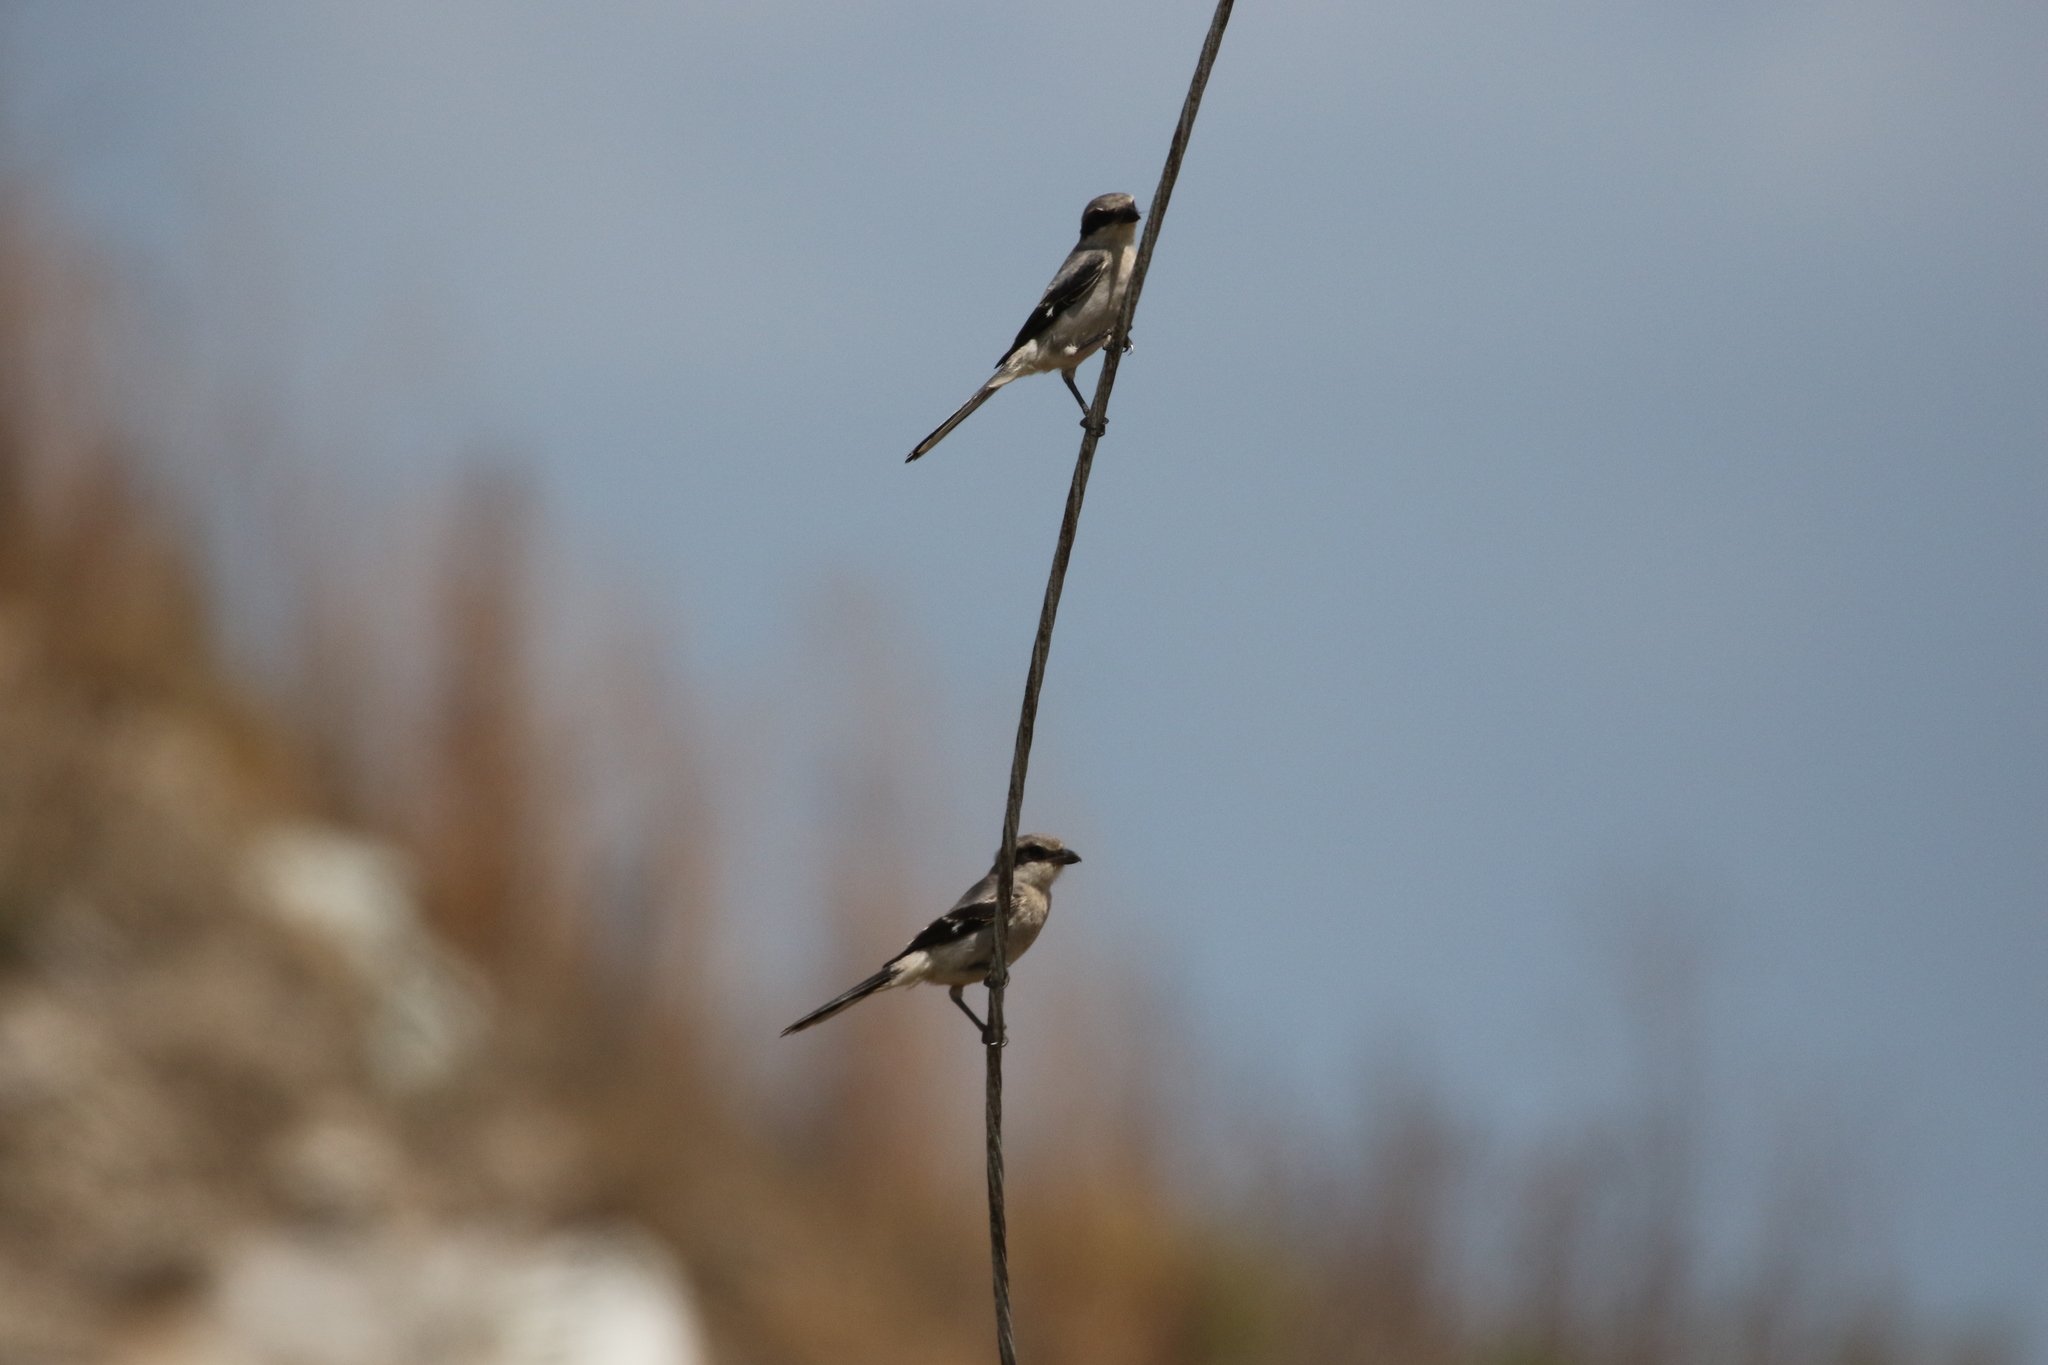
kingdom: Animalia
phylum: Chordata
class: Aves
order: Passeriformes
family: Laniidae
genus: Lanius
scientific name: Lanius ludovicianus
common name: Loggerhead shrike
